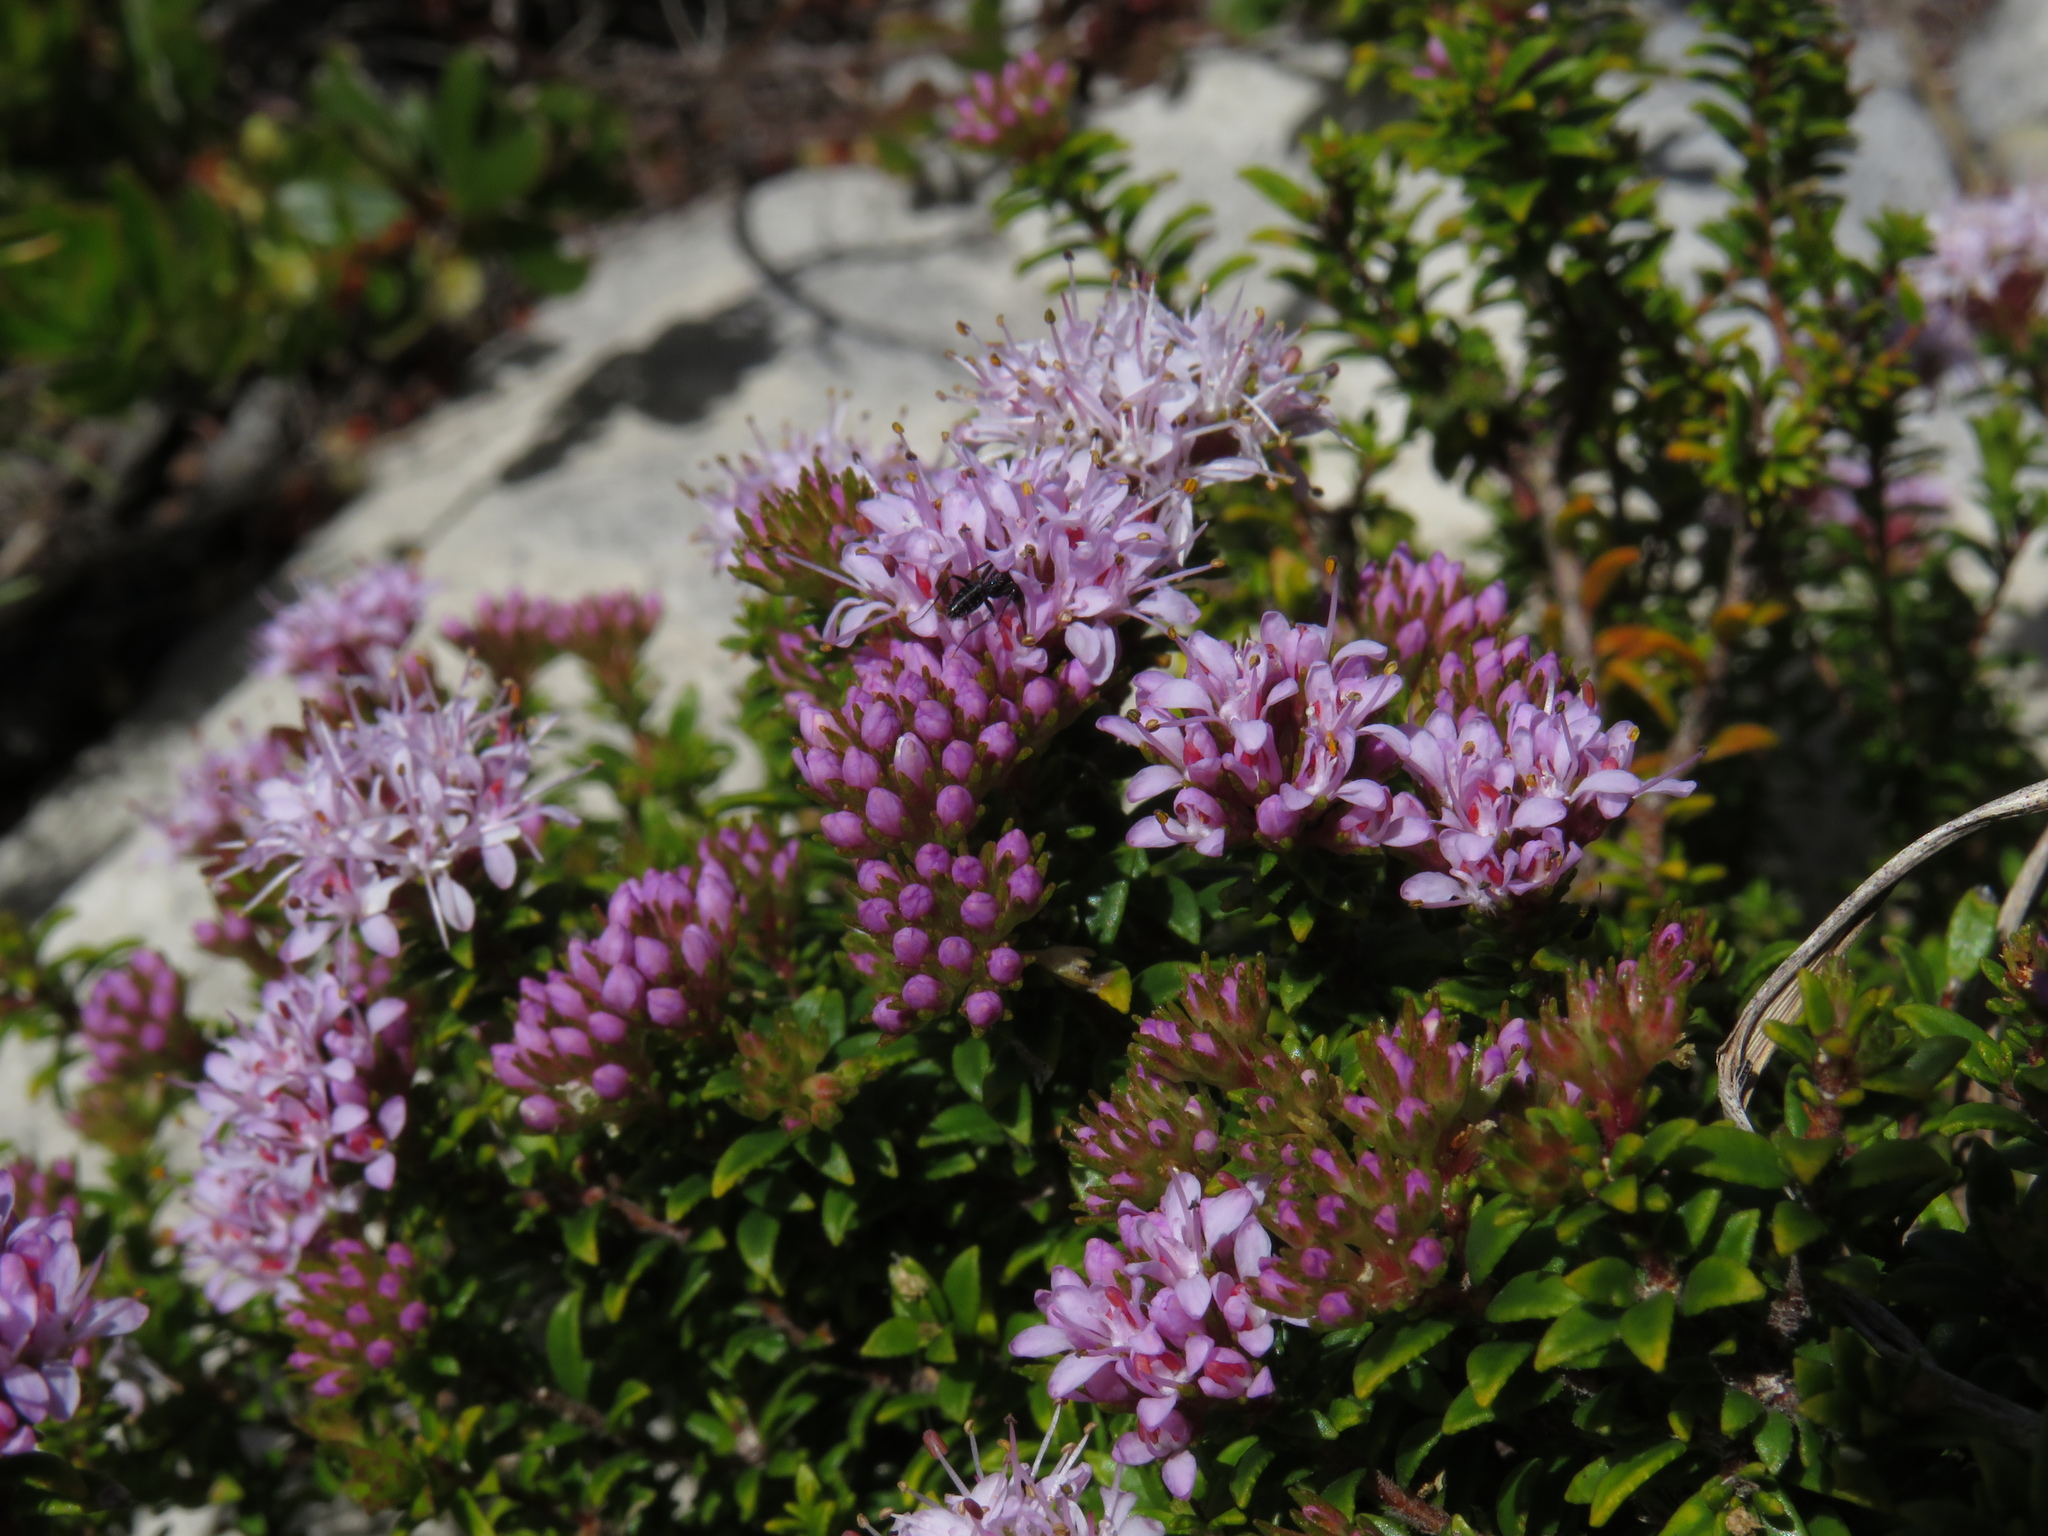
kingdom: Plantae
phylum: Tracheophyta
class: Magnoliopsida
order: Sapindales
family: Rutaceae
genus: Agathosma
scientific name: Agathosma lanceolata
